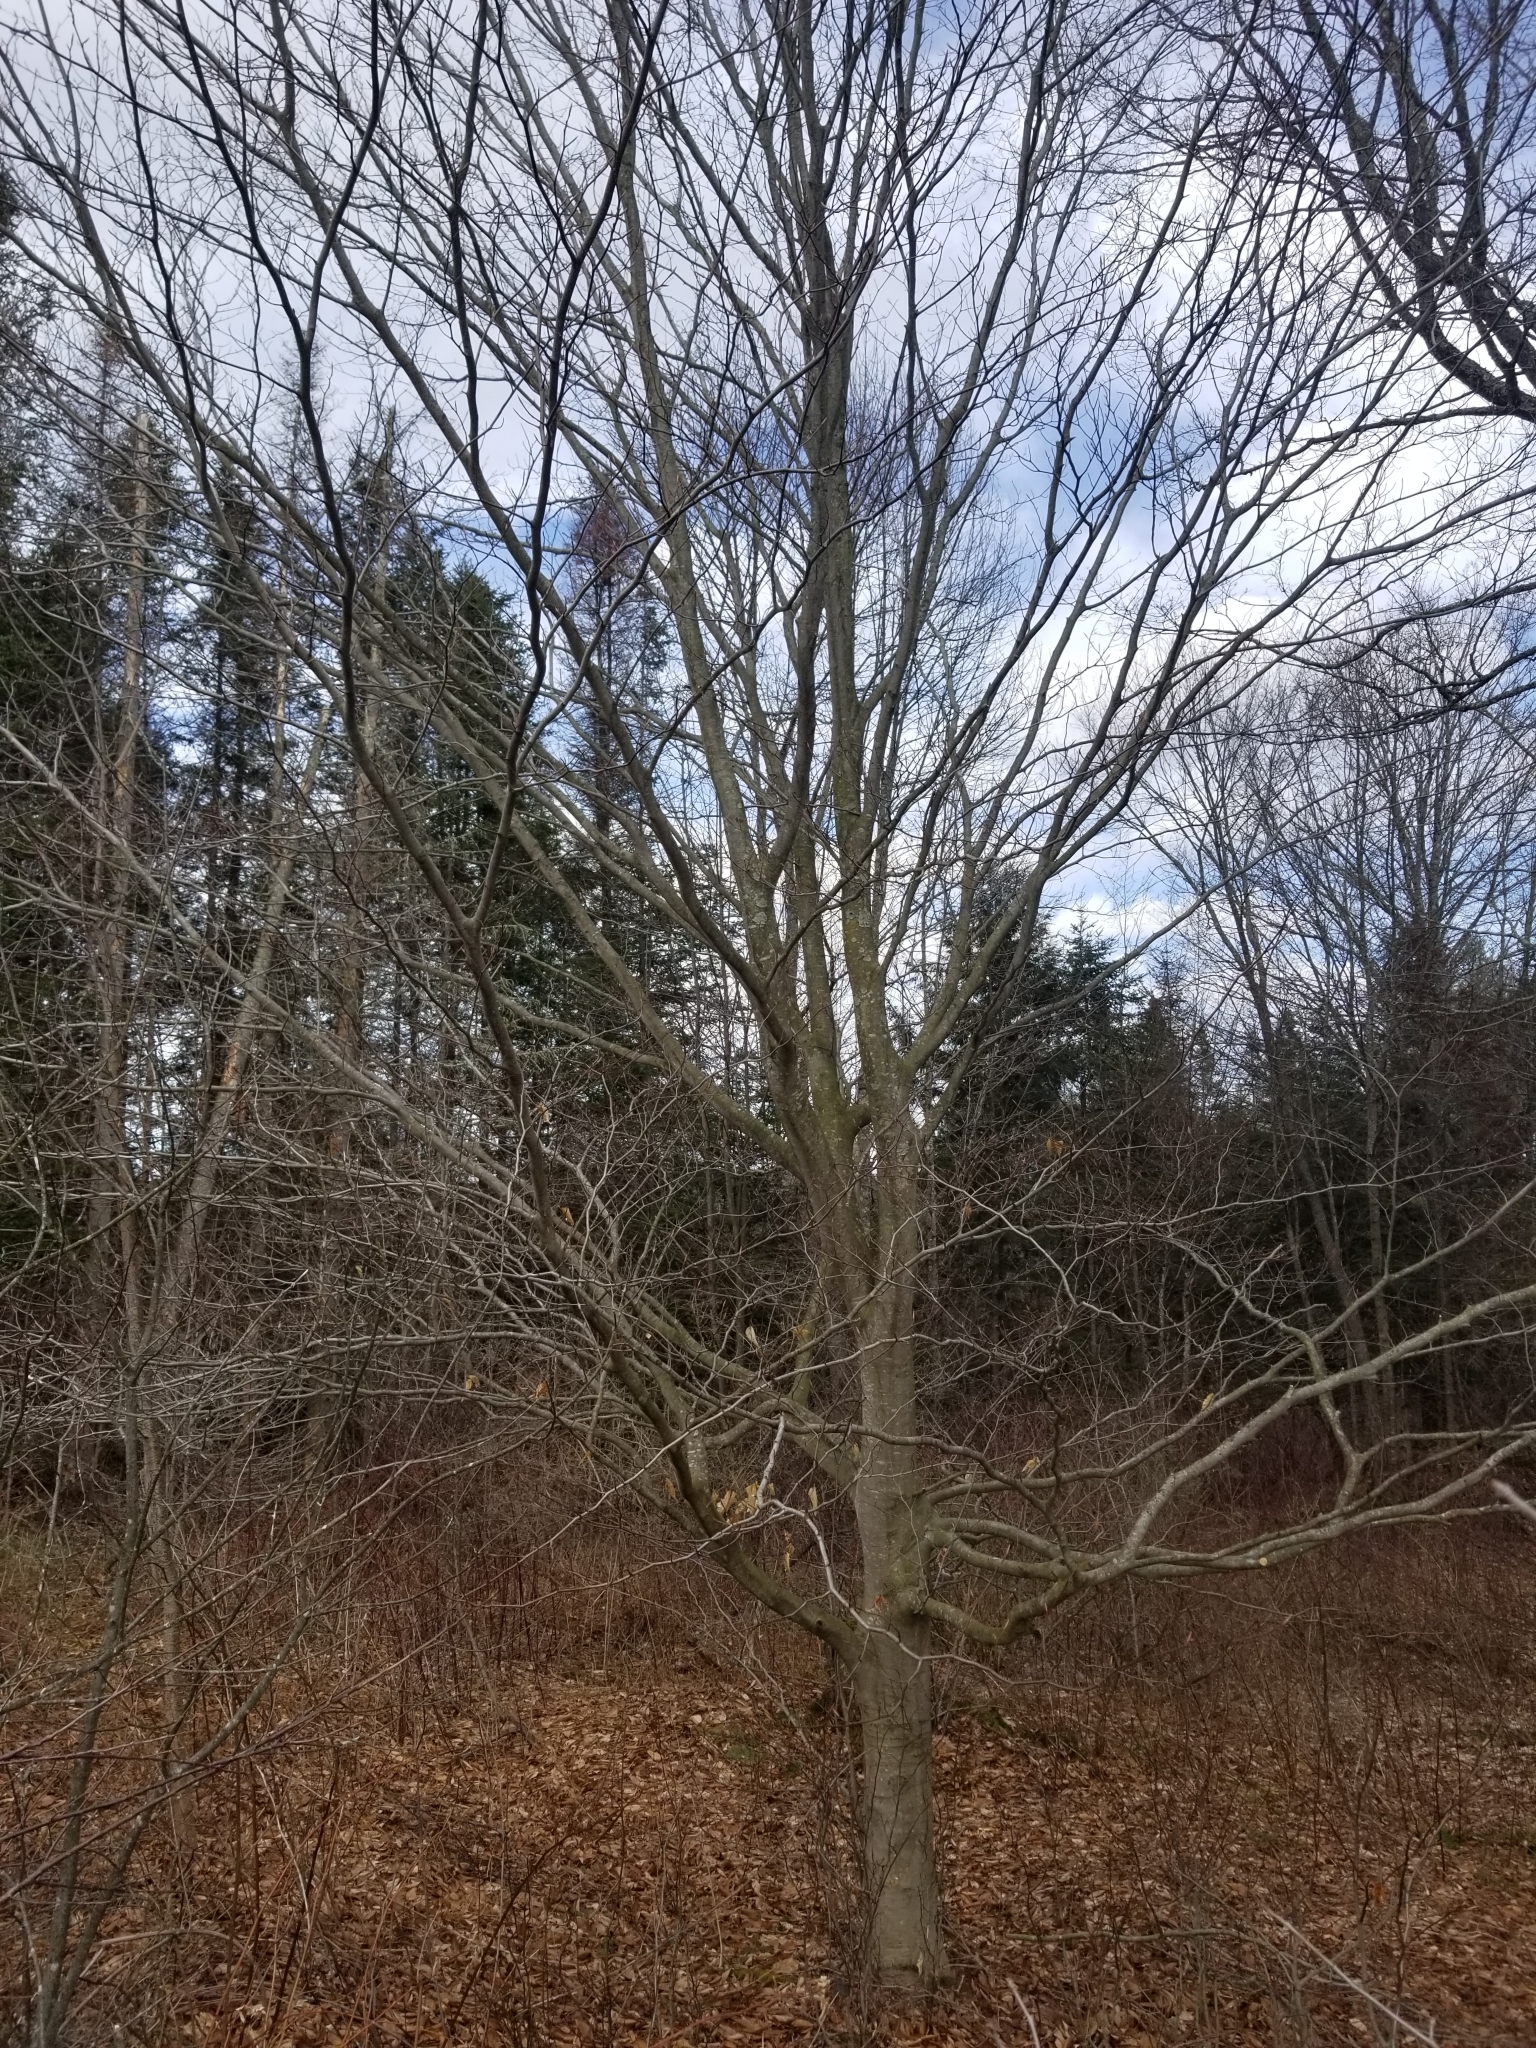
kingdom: Plantae
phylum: Tracheophyta
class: Magnoliopsida
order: Fagales
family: Fagaceae
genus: Fagus
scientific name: Fagus grandifolia
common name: American beech
